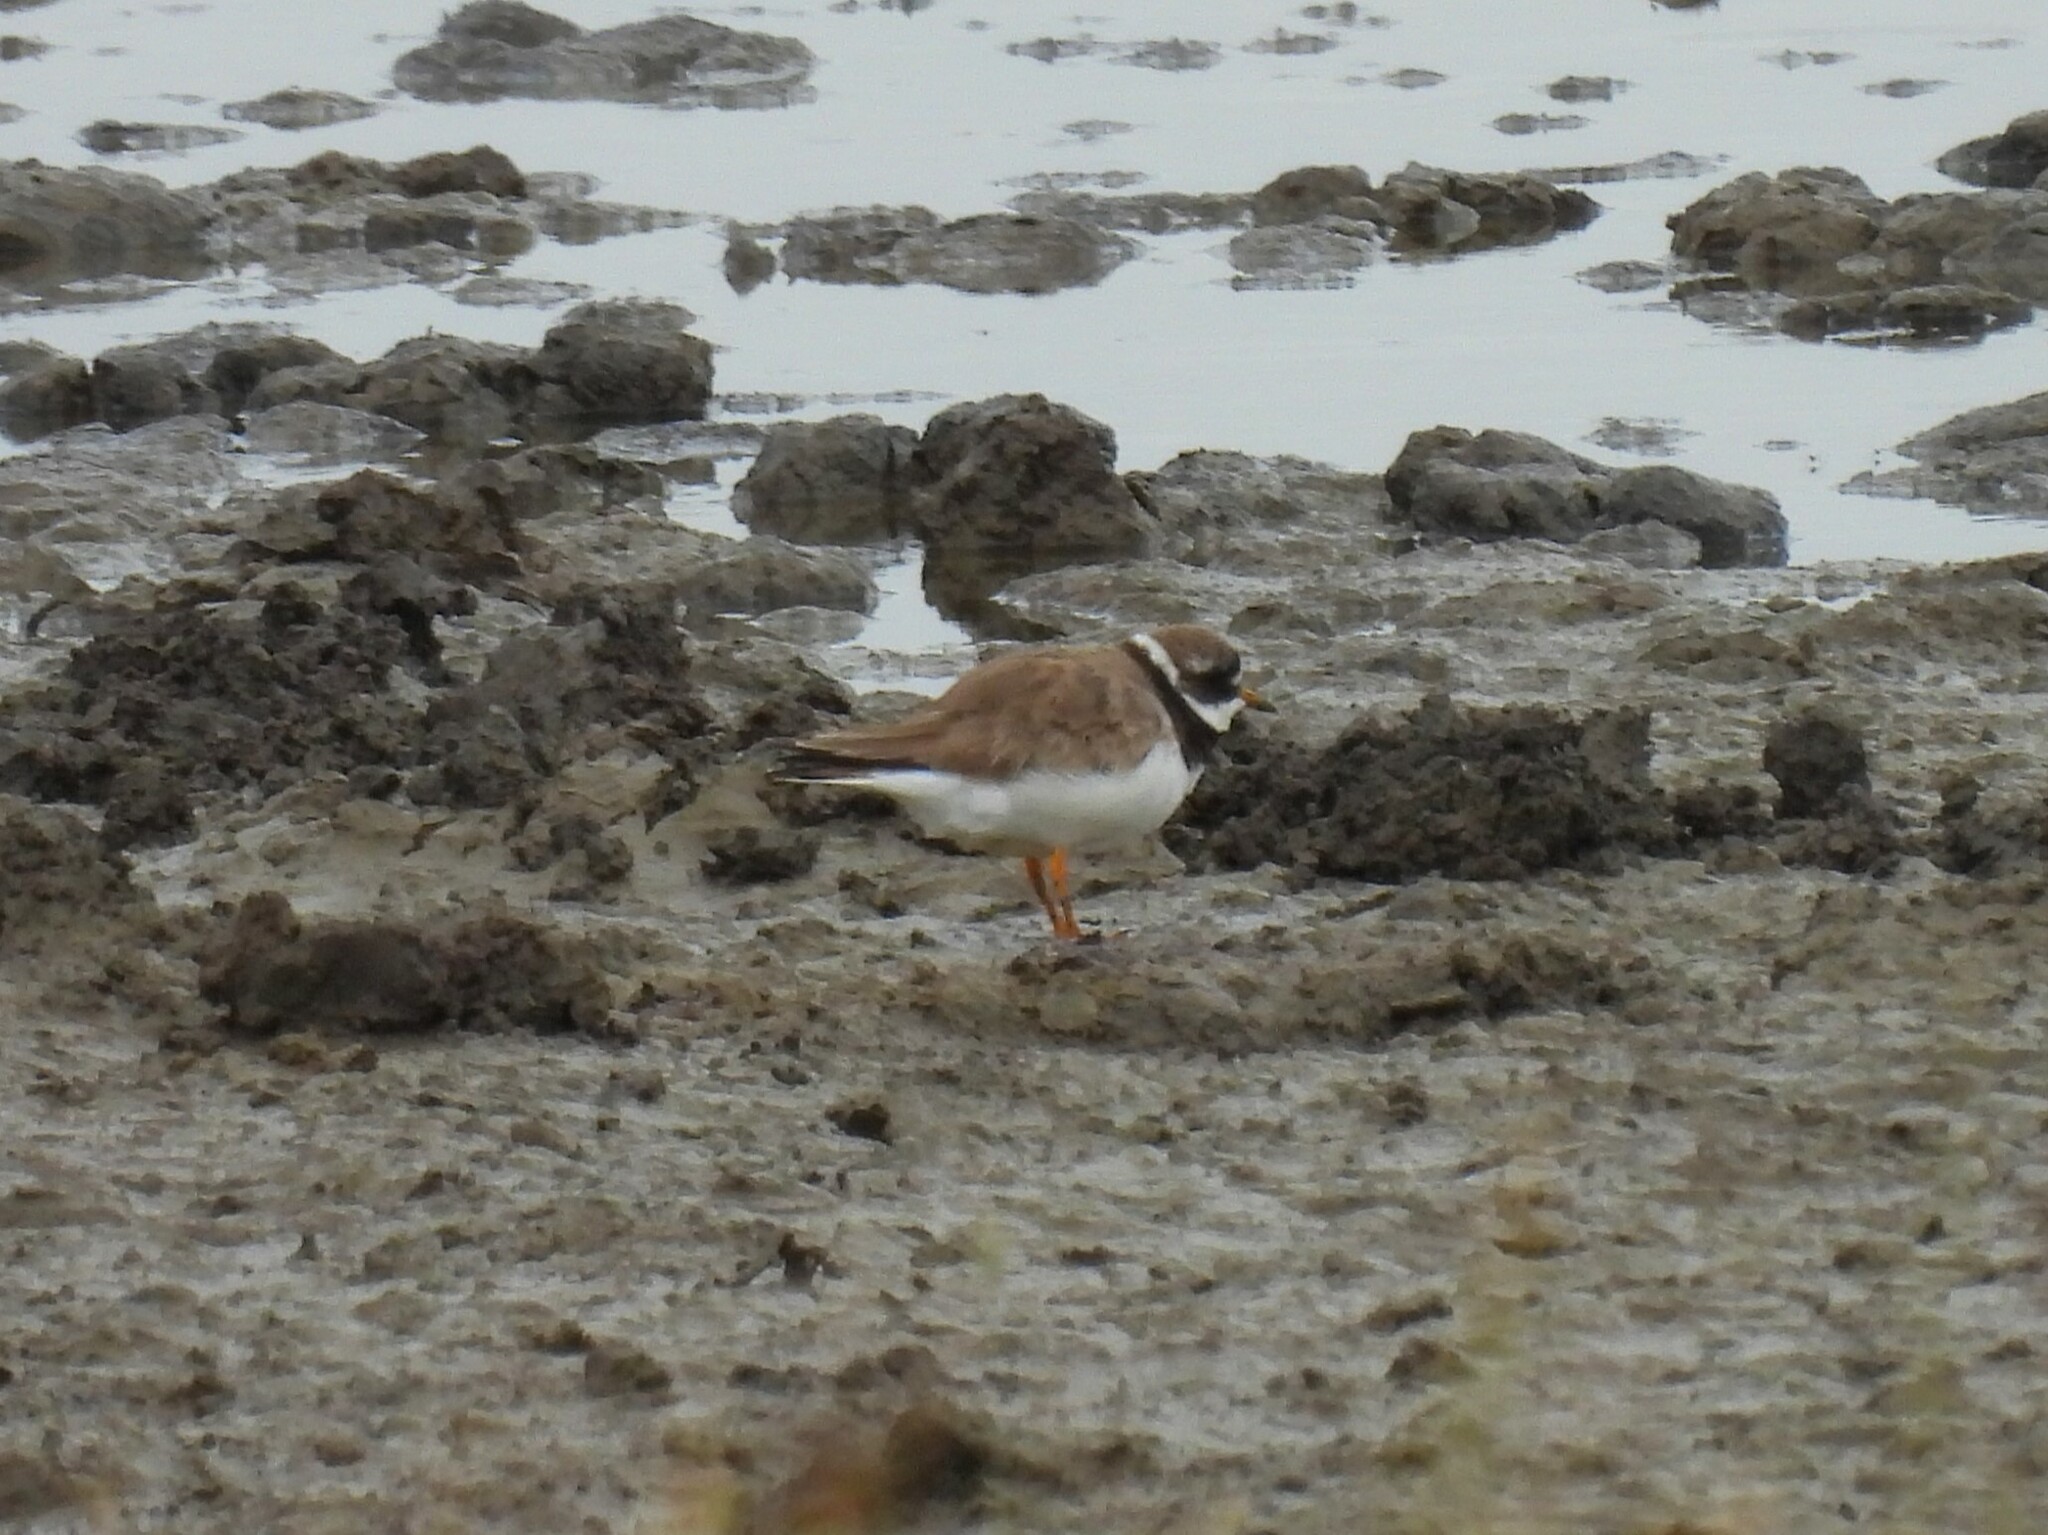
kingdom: Animalia
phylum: Chordata
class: Aves
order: Charadriiformes
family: Charadriidae
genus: Charadrius
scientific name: Charadrius hiaticula
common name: Common ringed plover
